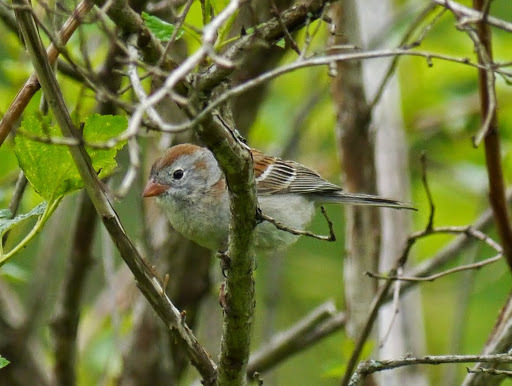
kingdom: Animalia
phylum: Chordata
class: Aves
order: Passeriformes
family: Passerellidae
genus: Spizella
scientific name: Spizella pusilla
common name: Field sparrow
